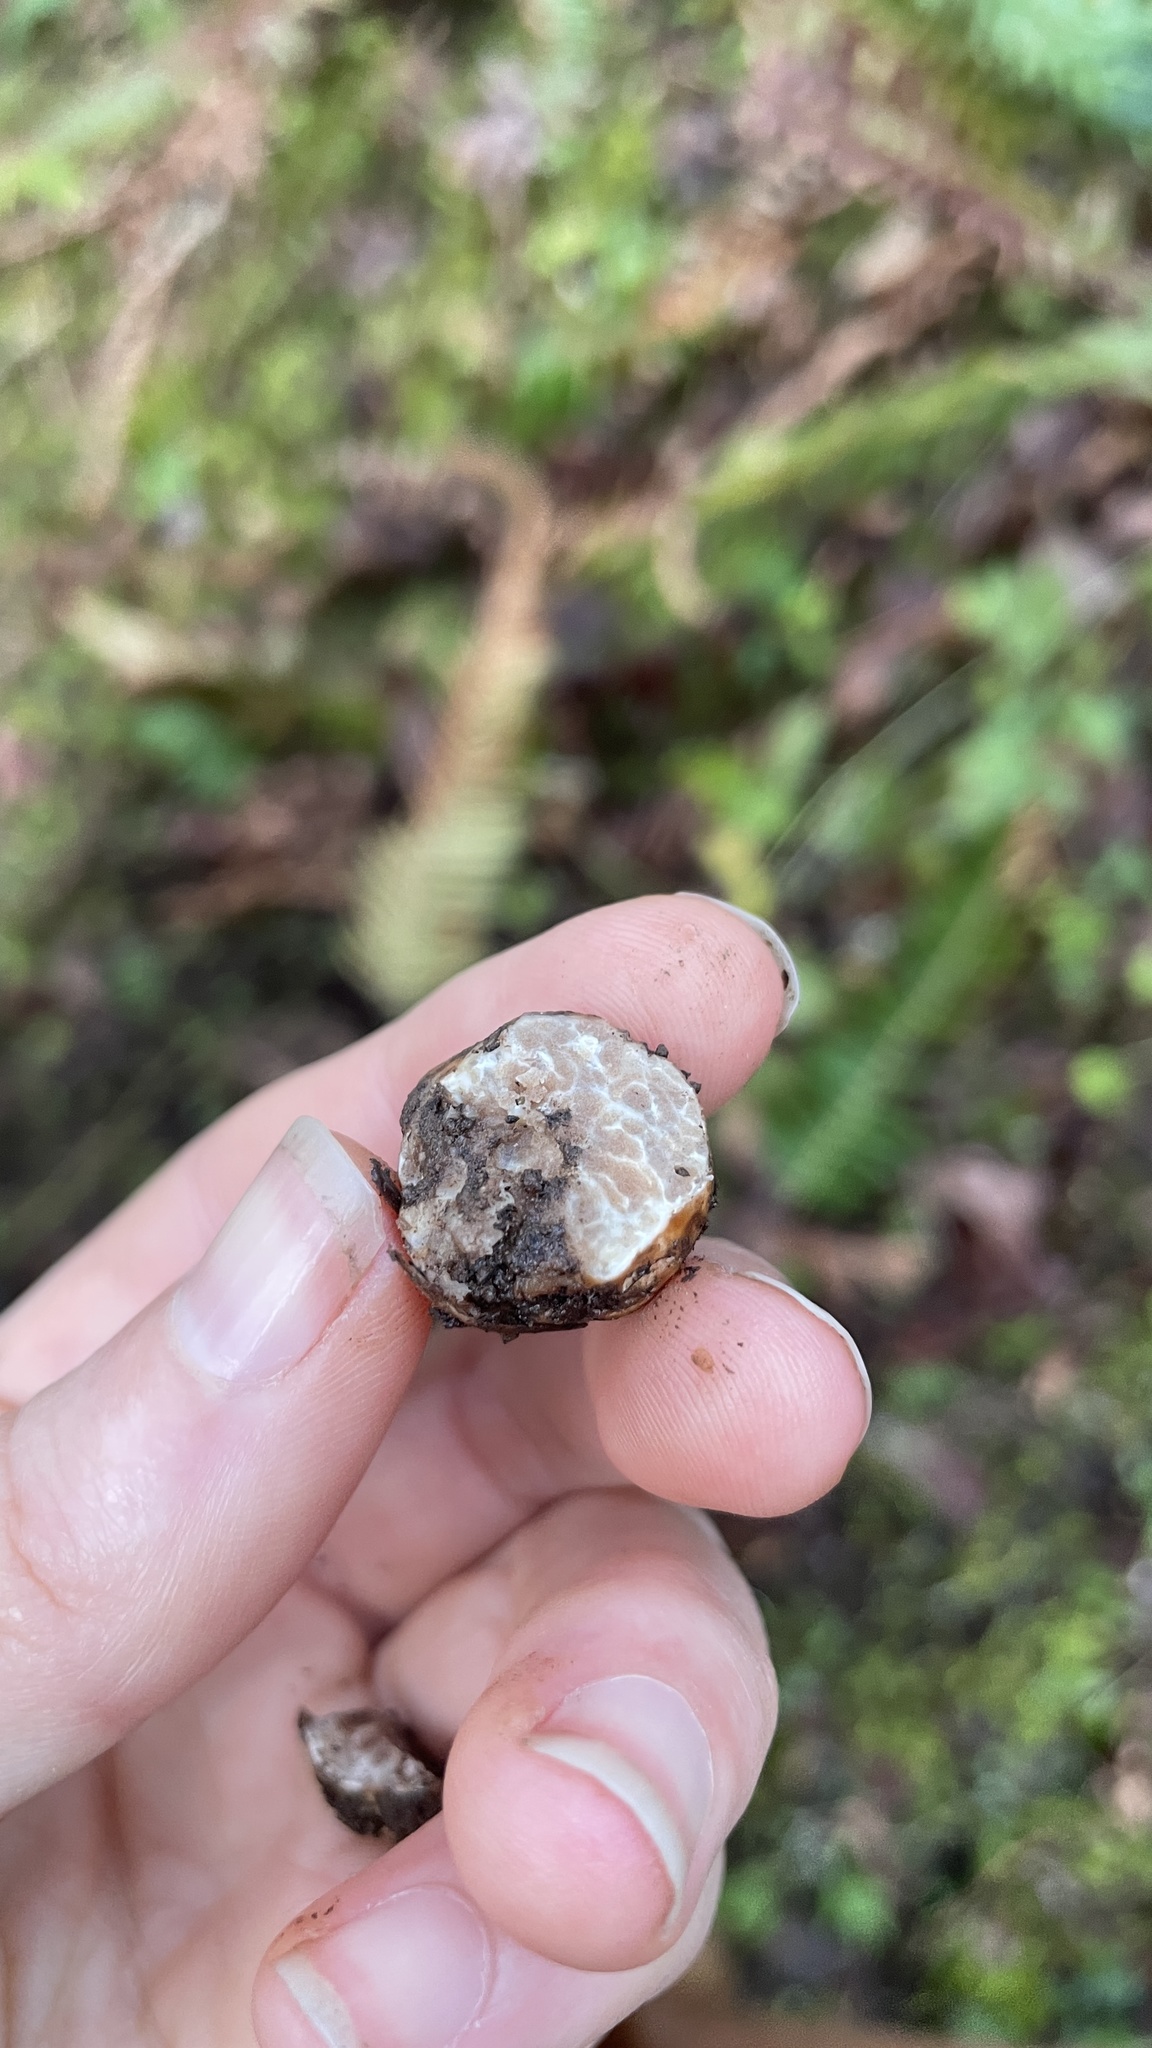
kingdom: Fungi
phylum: Ascomycota
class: Pezizomycetes
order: Pezizales
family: Tuberaceae
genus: Tuber
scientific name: Tuber oregonense
